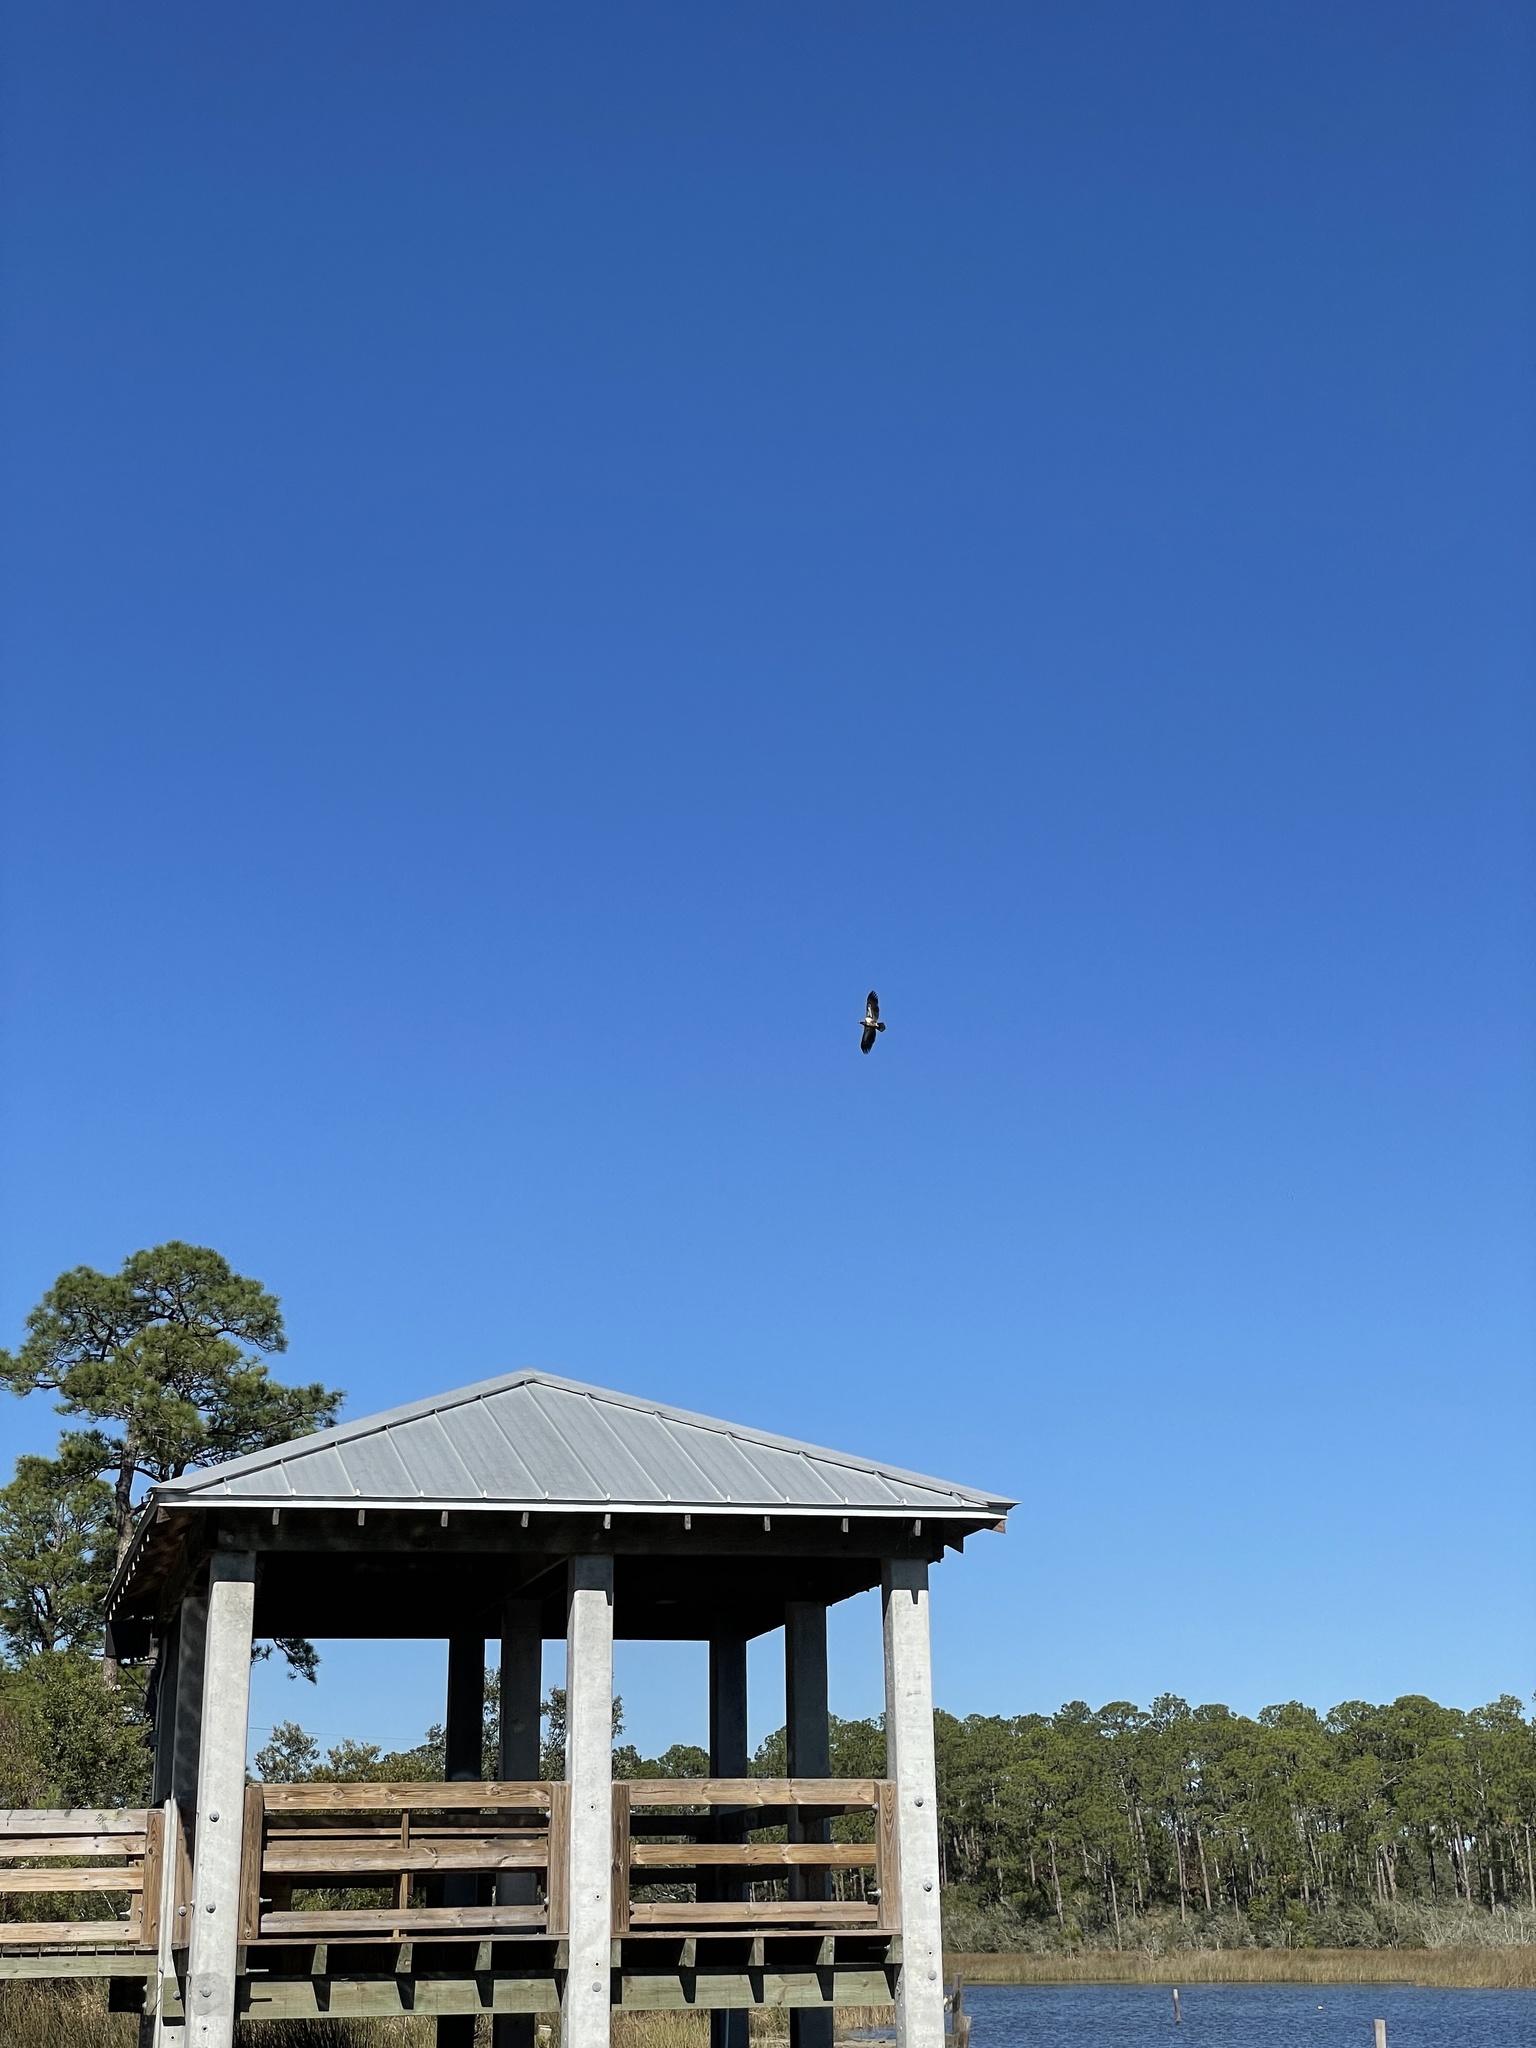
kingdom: Animalia
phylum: Chordata
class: Aves
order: Accipitriformes
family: Accipitridae
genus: Haliaeetus
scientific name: Haliaeetus leucocephalus
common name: Bald eagle
